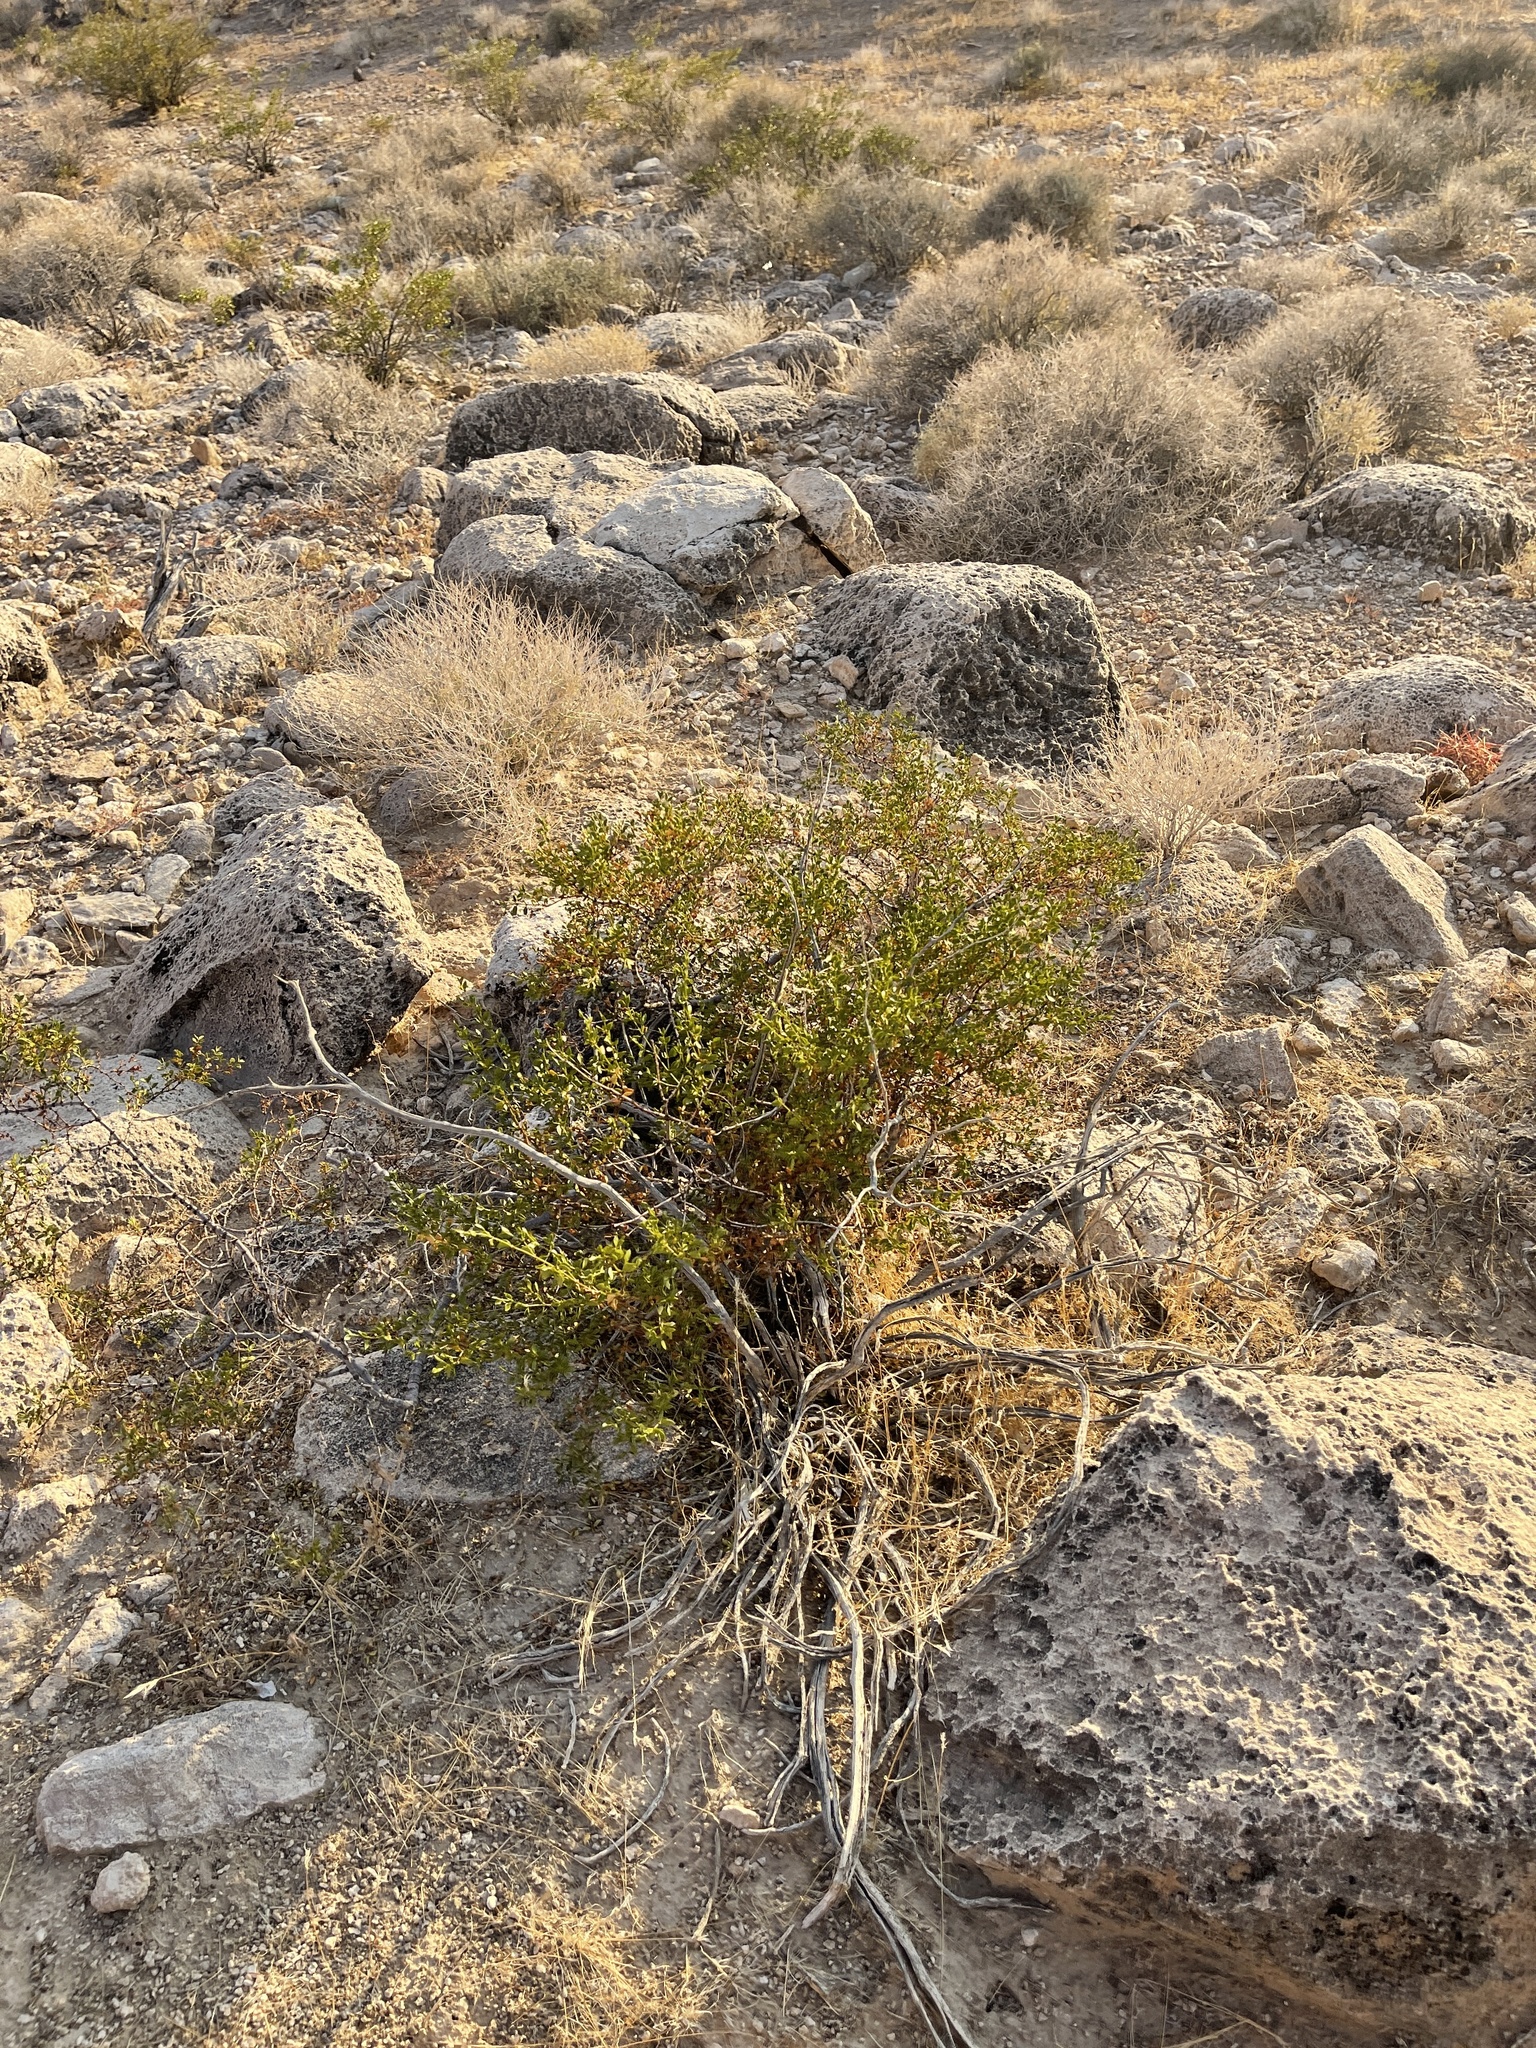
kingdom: Plantae
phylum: Tracheophyta
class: Magnoliopsida
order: Zygophyllales
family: Zygophyllaceae
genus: Larrea
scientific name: Larrea tridentata
